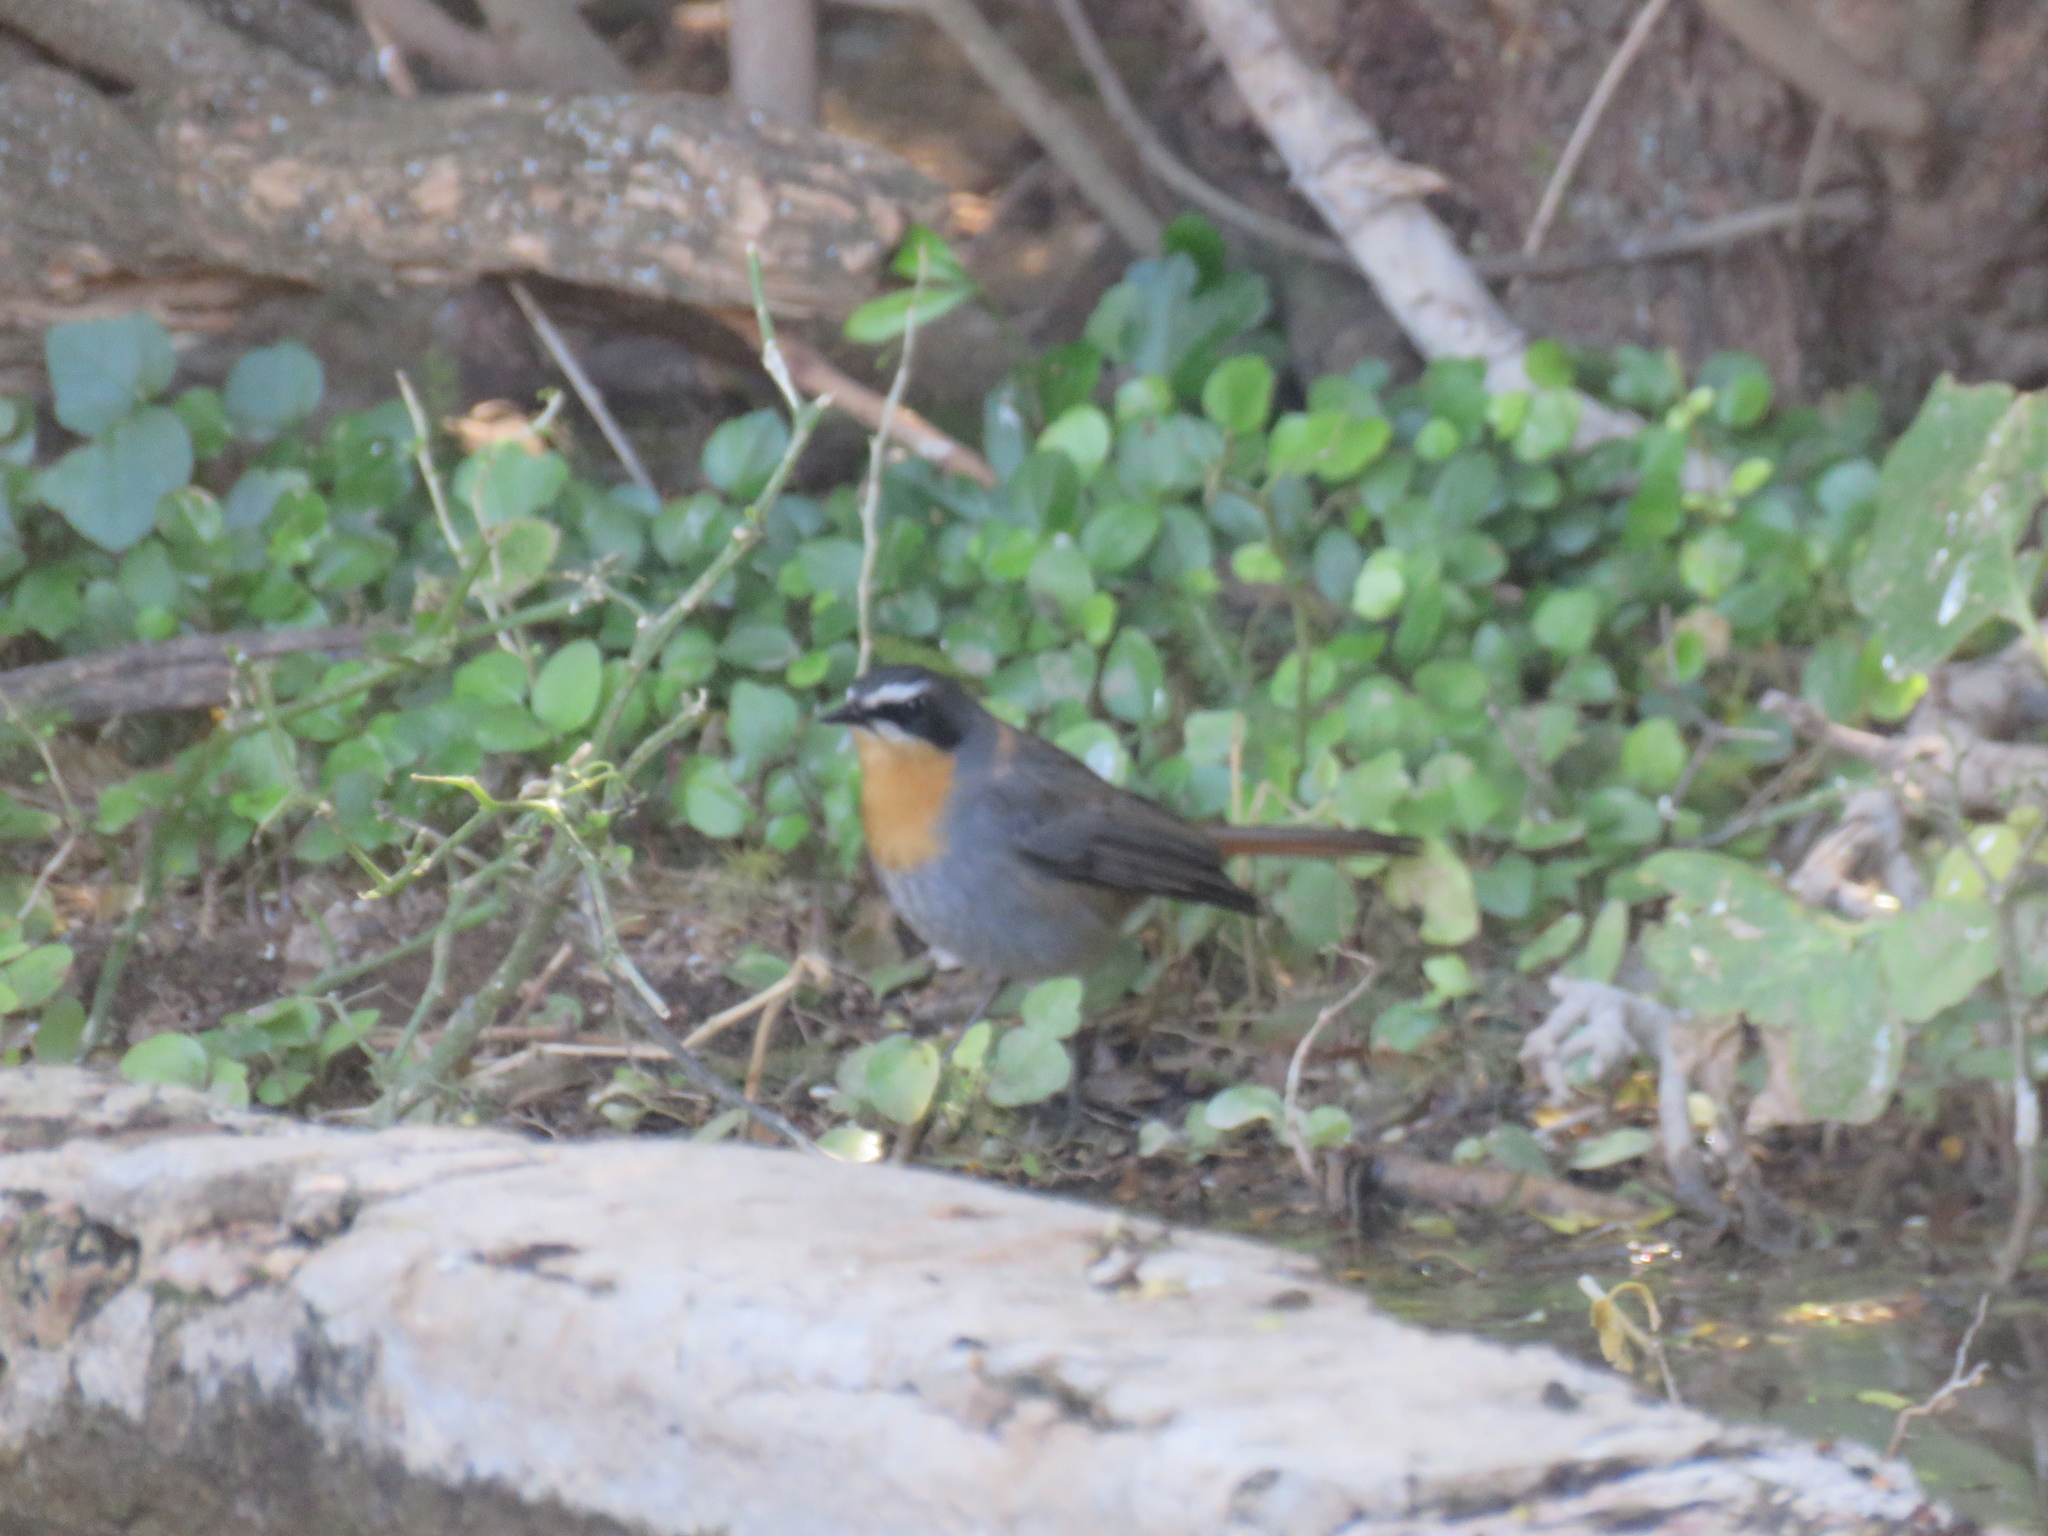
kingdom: Animalia
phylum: Chordata
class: Aves
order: Passeriformes
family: Muscicapidae
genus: Cossypha
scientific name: Cossypha caffra
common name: Cape robin-chat
